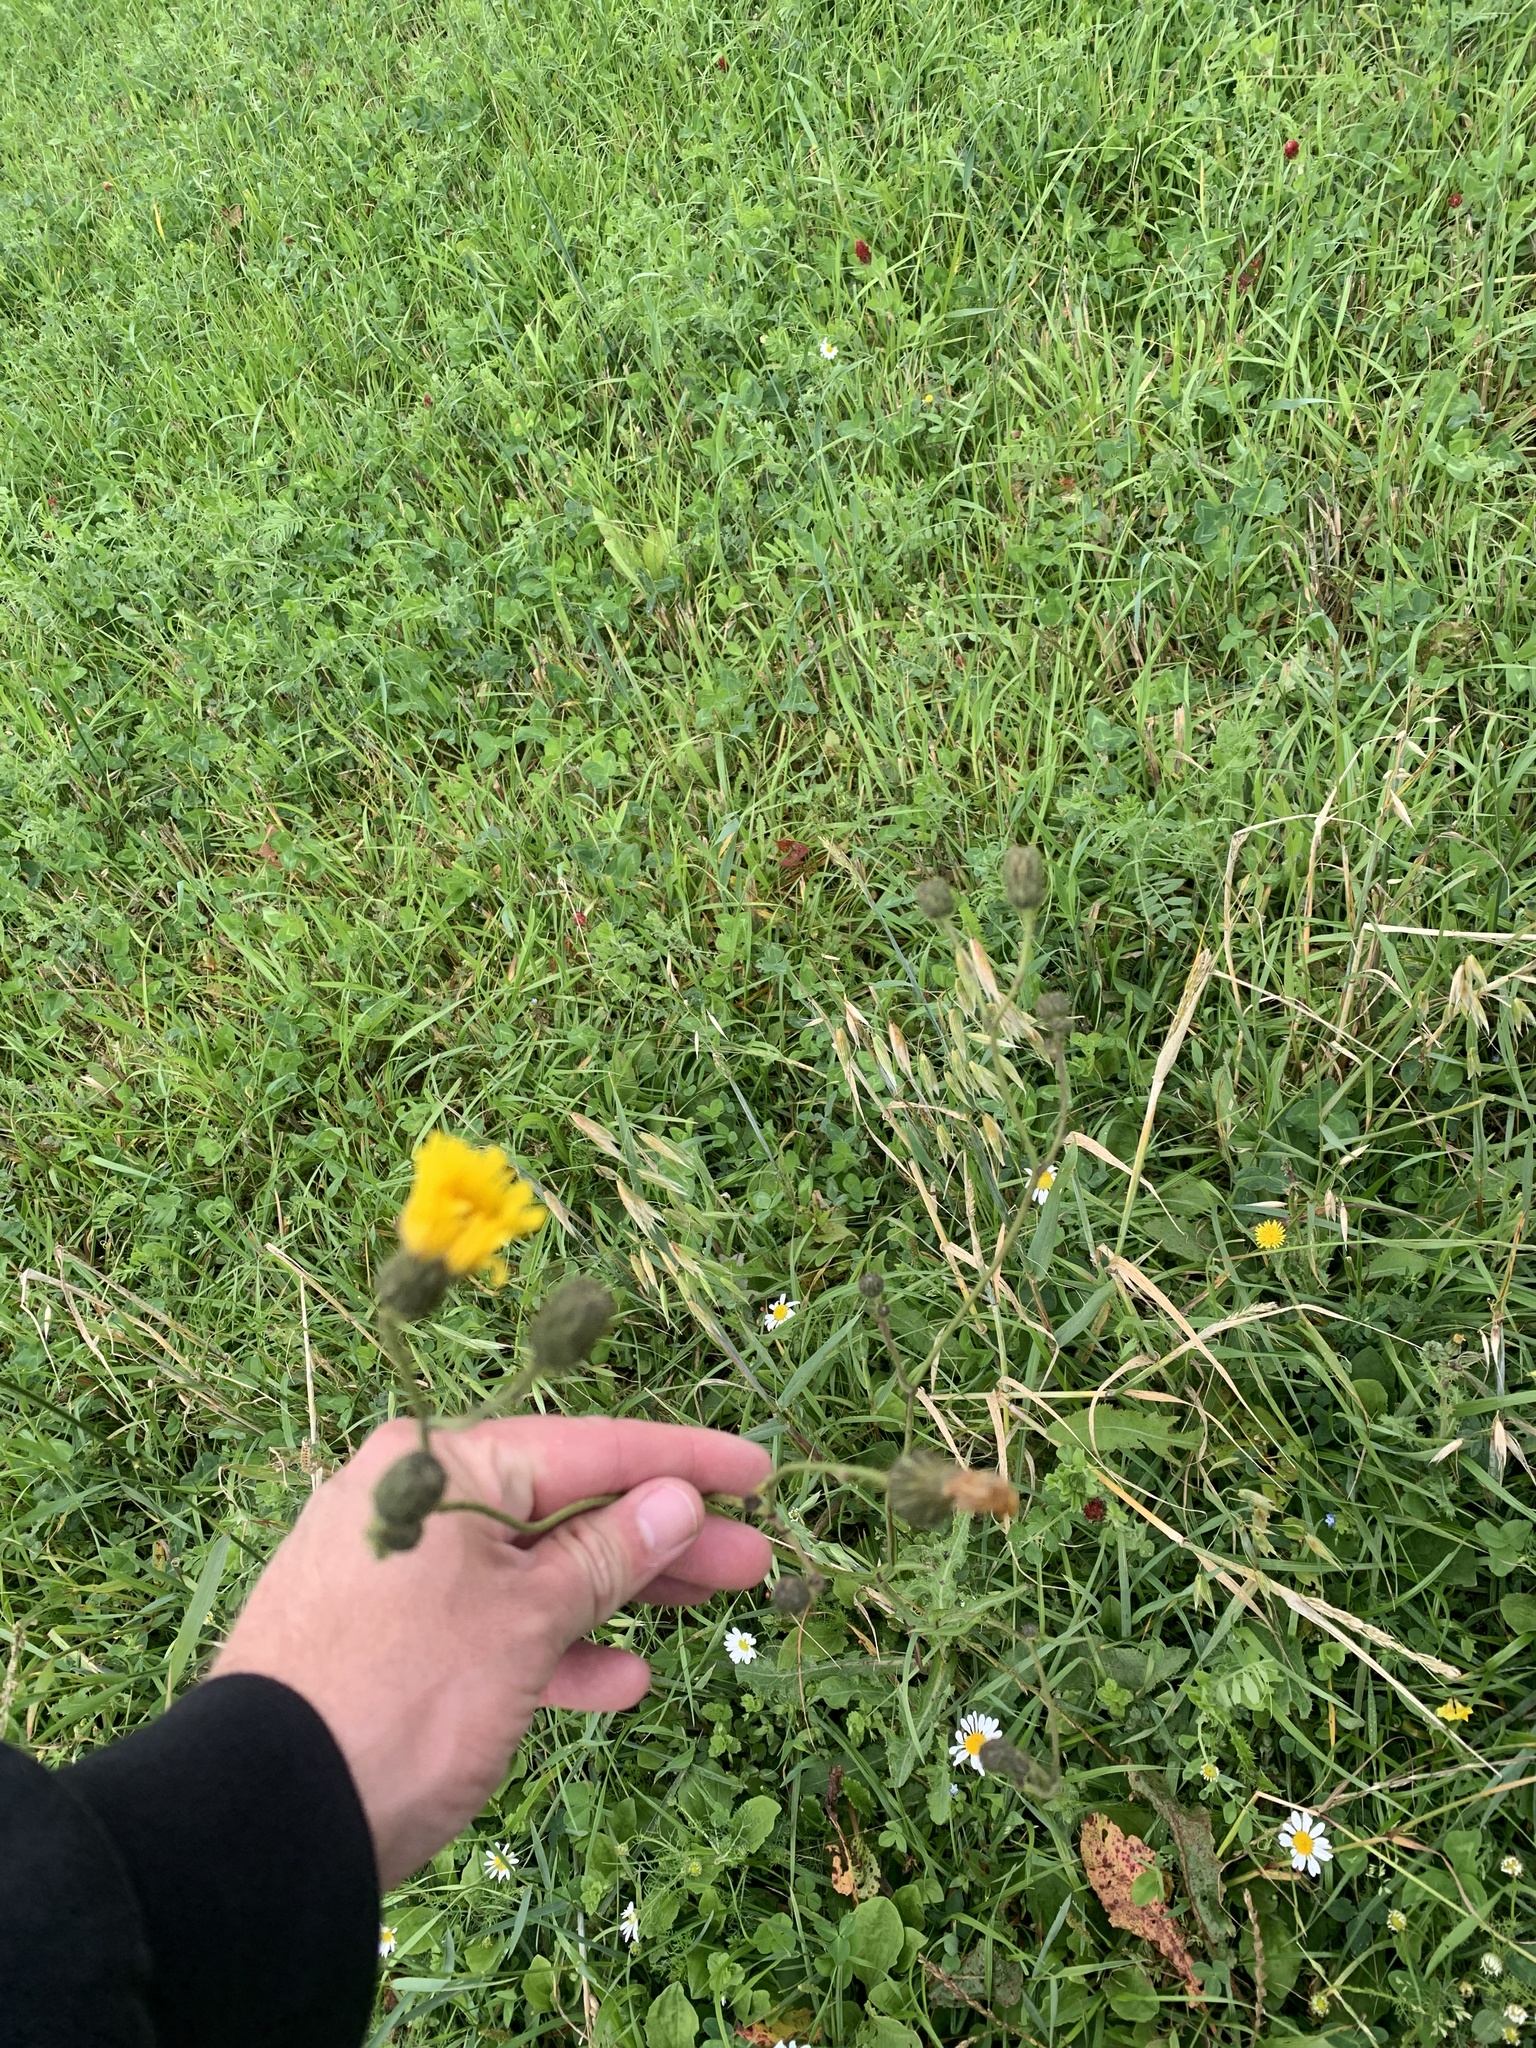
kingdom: Plantae
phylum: Tracheophyta
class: Magnoliopsida
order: Asterales
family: Asteraceae
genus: Sonchus
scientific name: Sonchus arvensis
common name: Perennial sow-thistle
